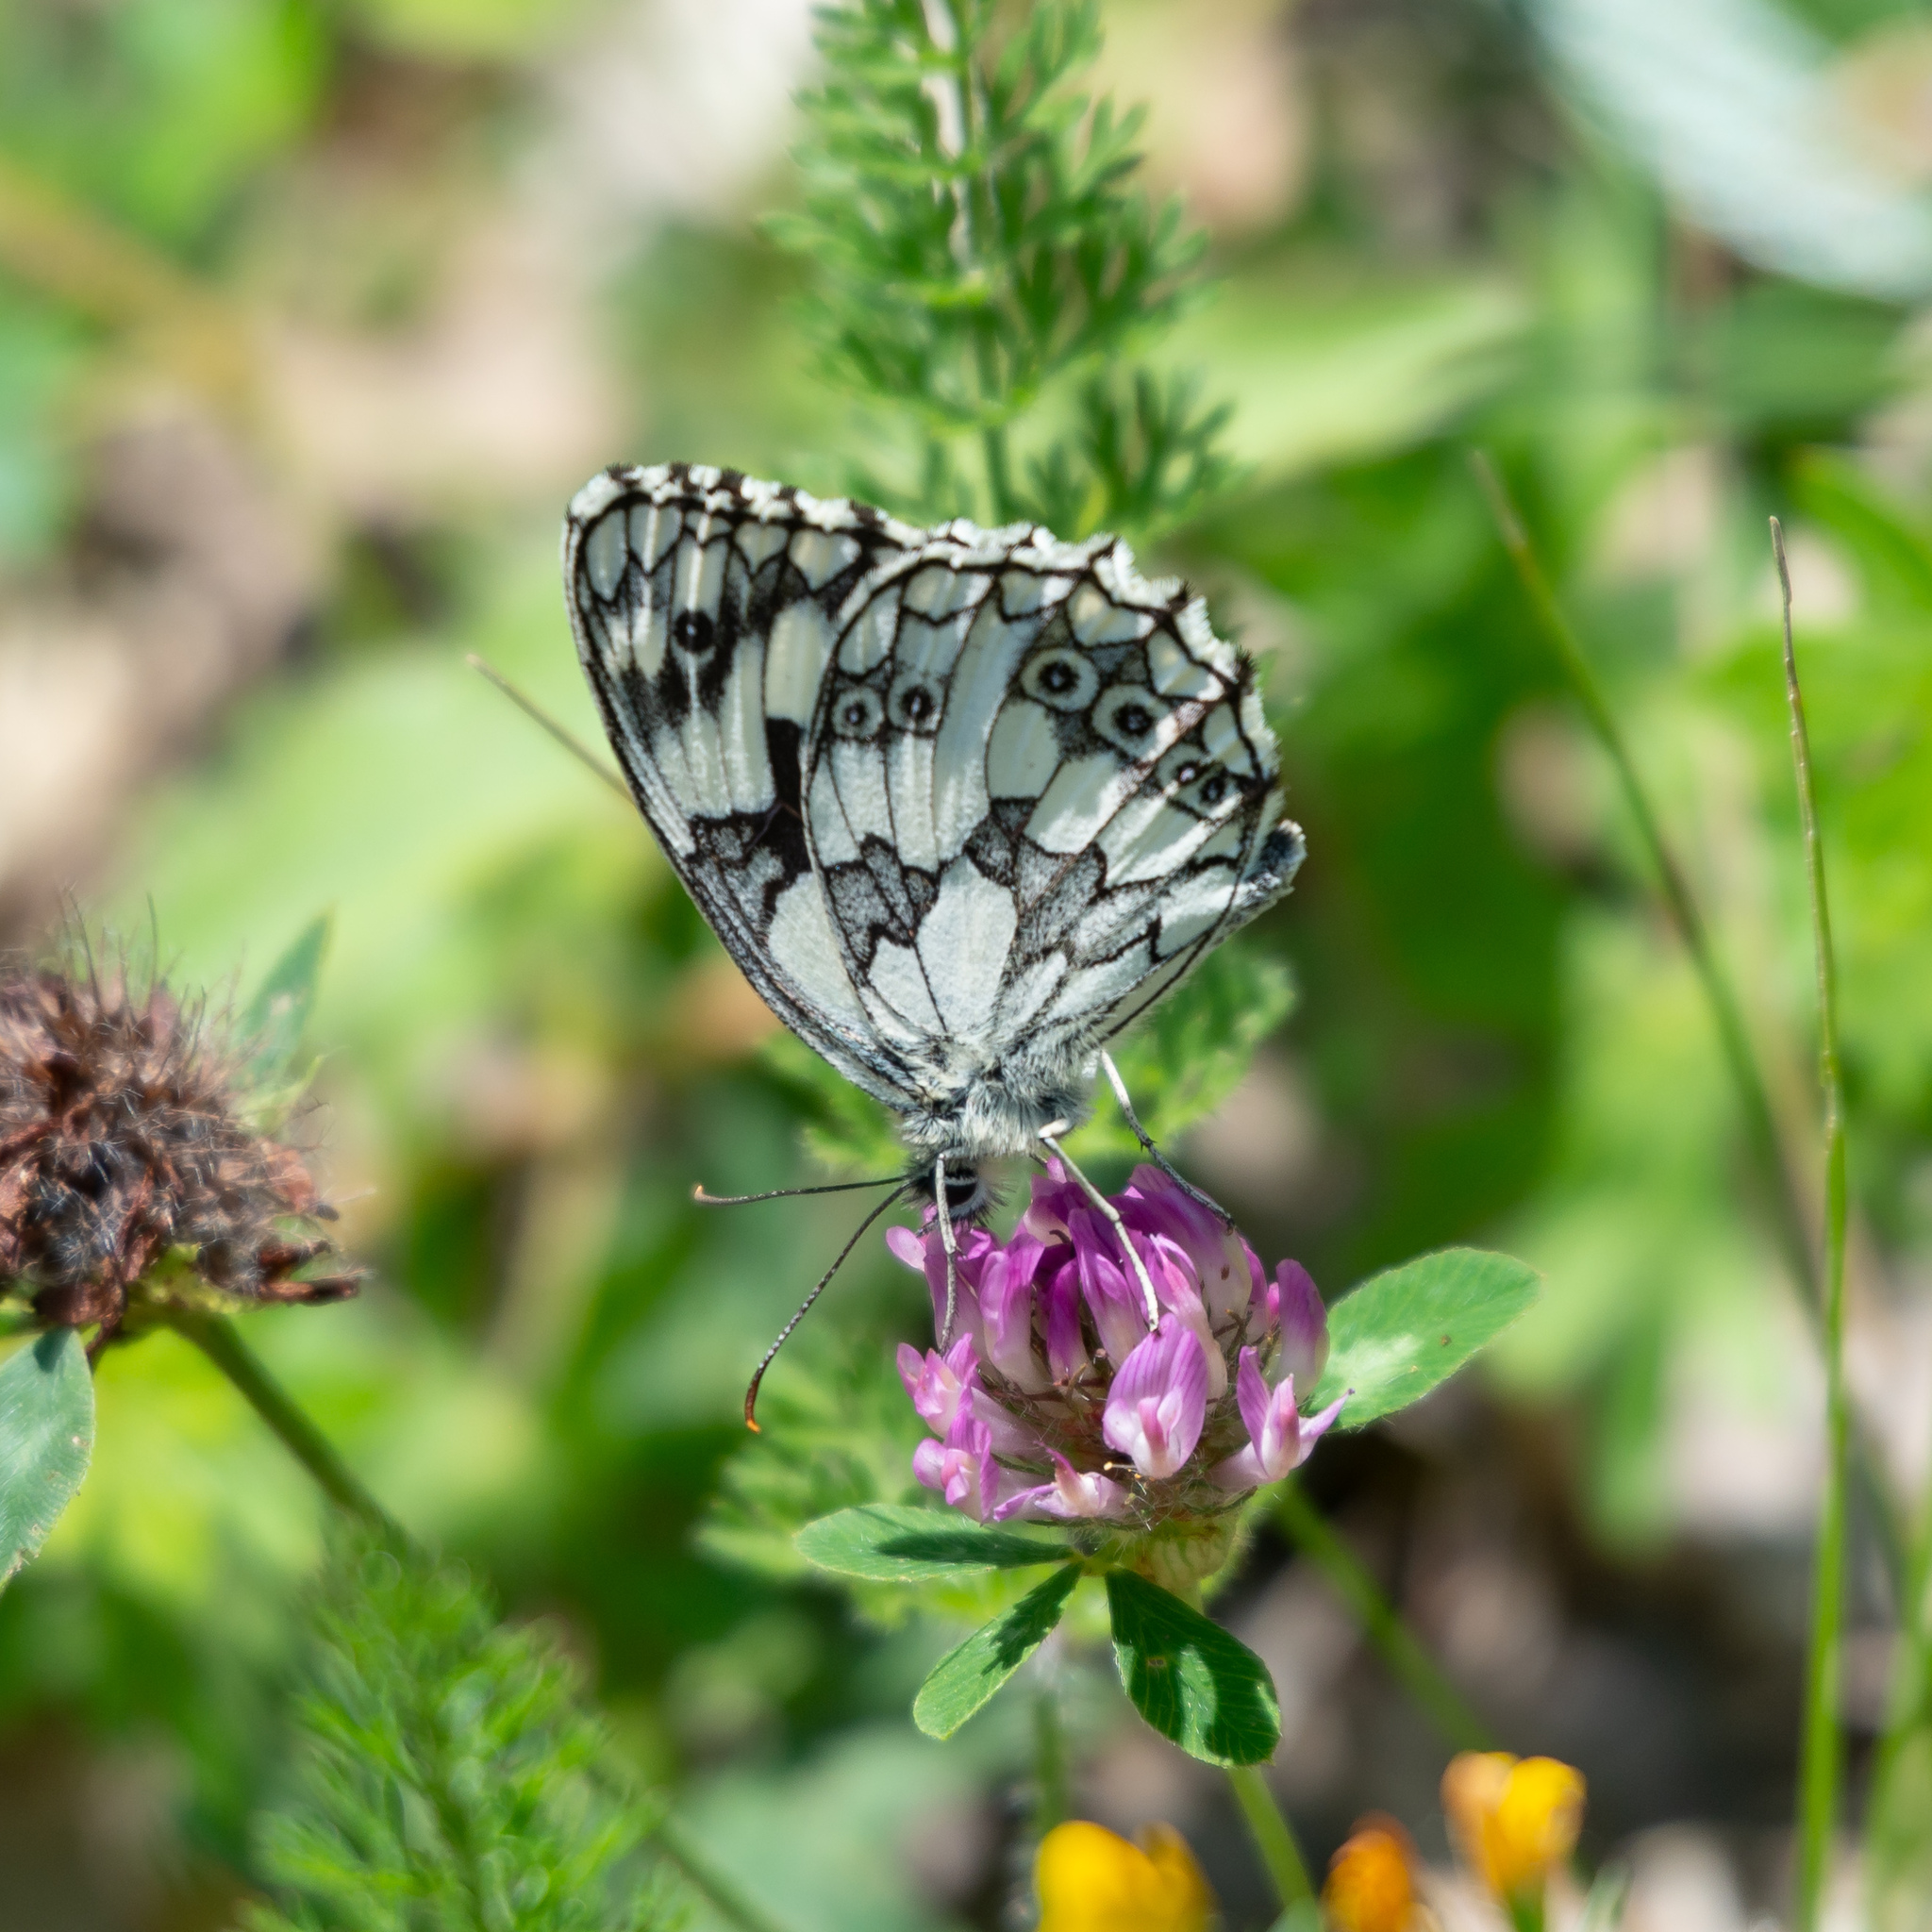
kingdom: Animalia
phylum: Arthropoda
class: Insecta
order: Lepidoptera
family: Nymphalidae
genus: Melanargia
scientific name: Melanargia galathea
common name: Marbled white
